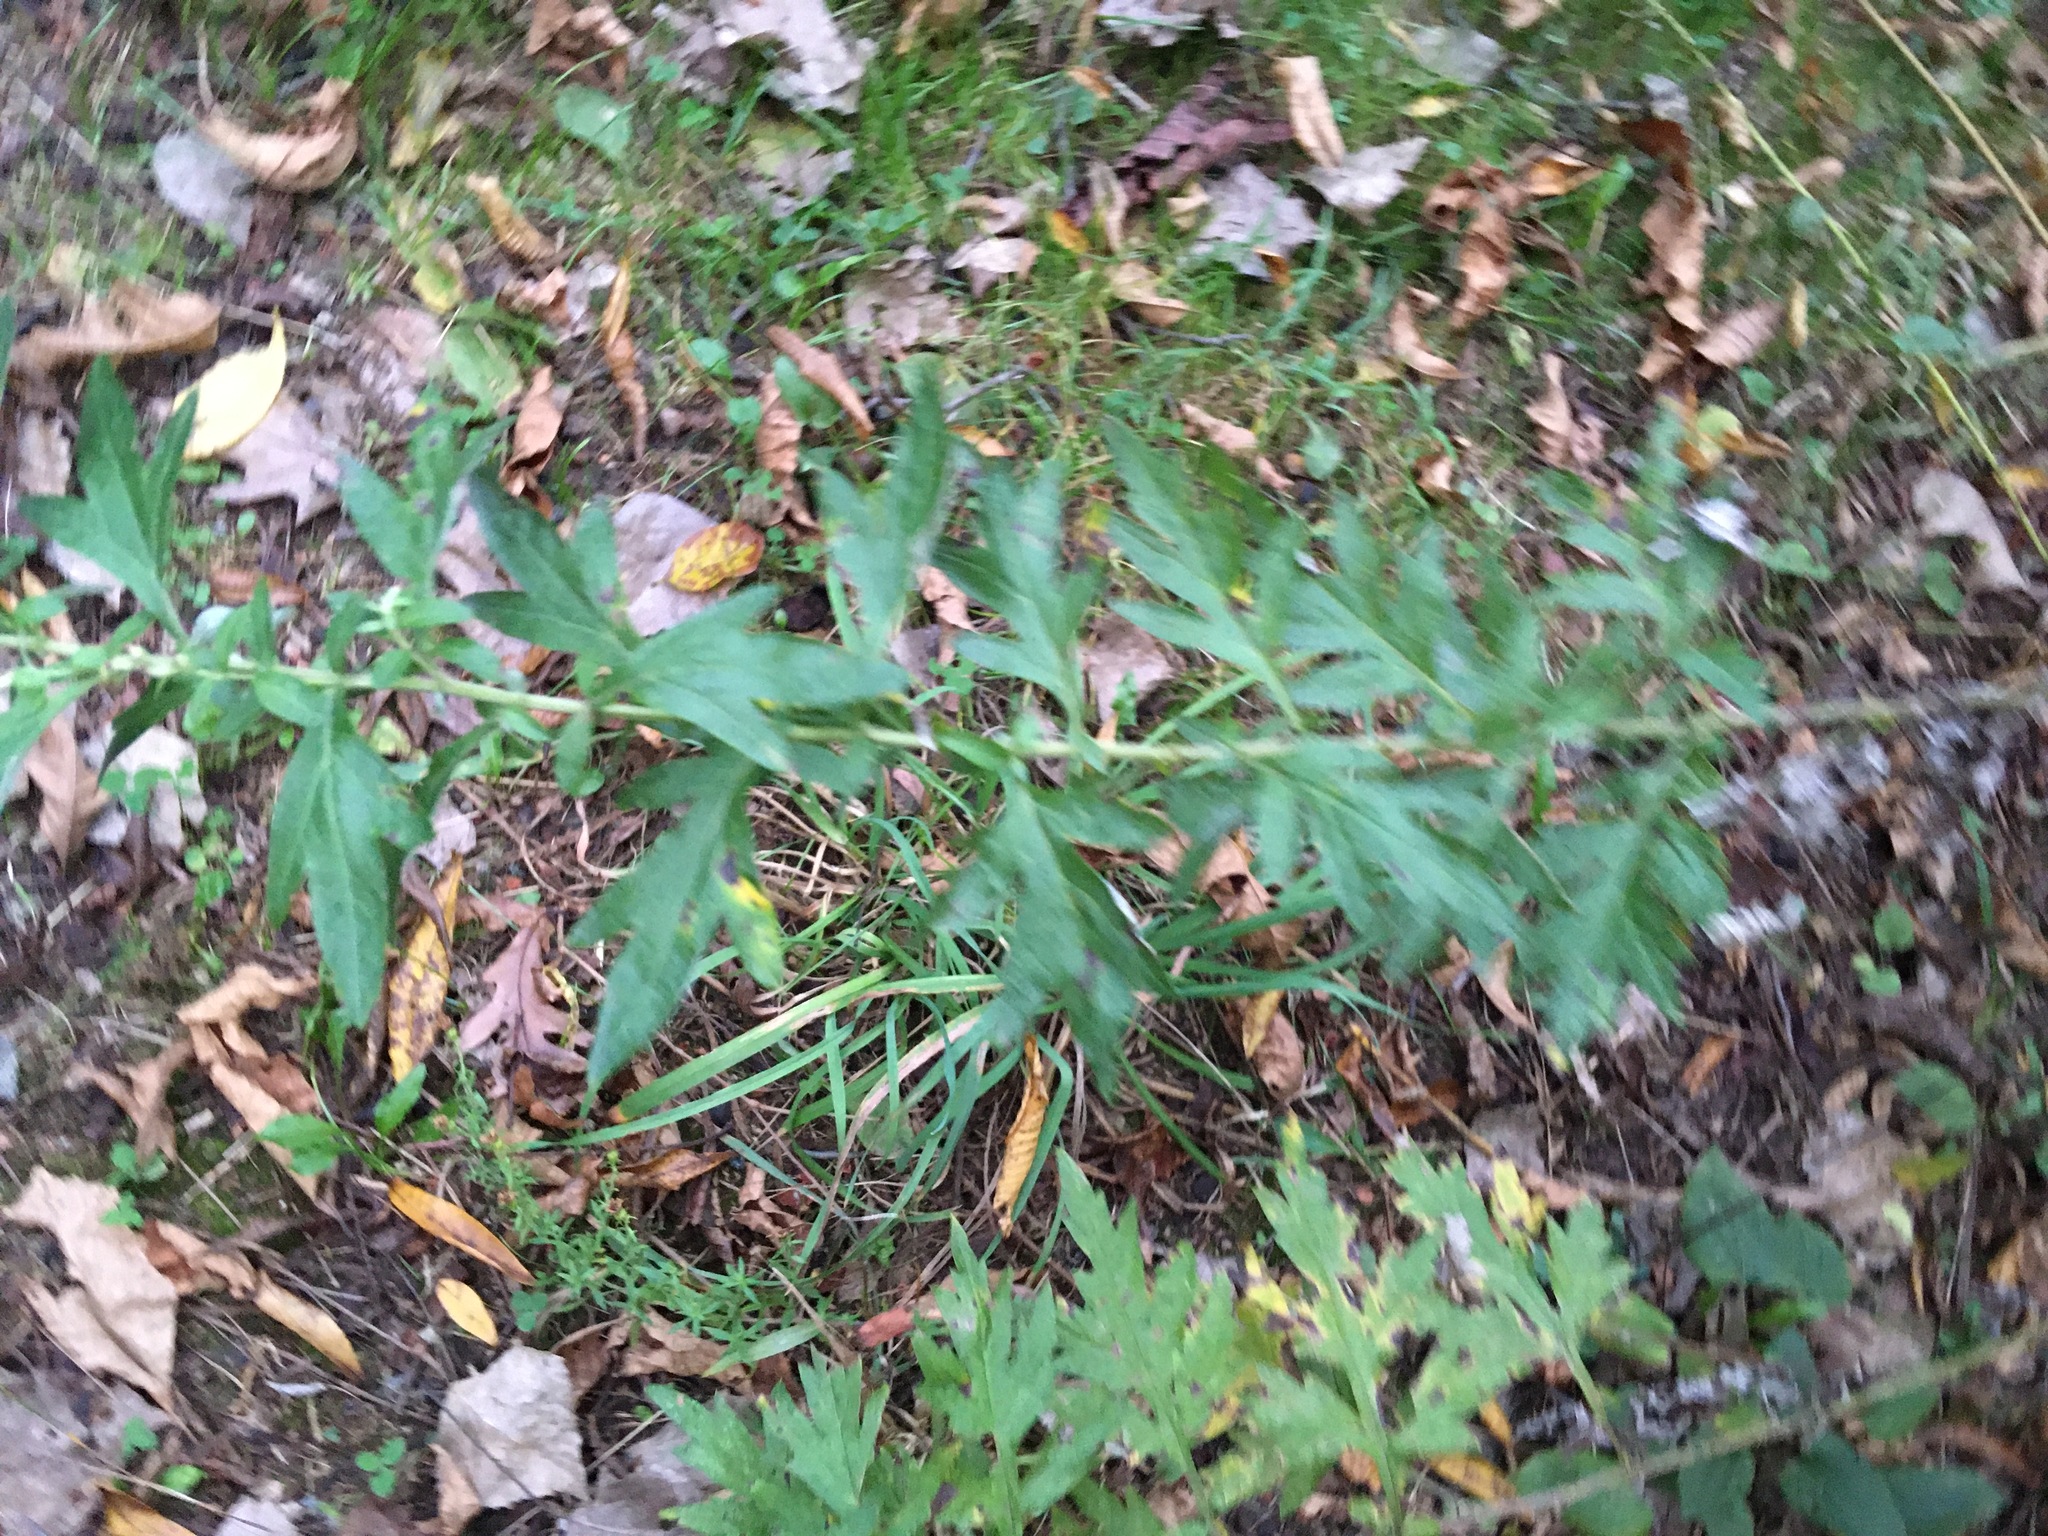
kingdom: Plantae
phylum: Tracheophyta
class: Magnoliopsida
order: Asterales
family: Asteraceae
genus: Artemisia
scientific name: Artemisia vulgaris
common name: Mugwort
